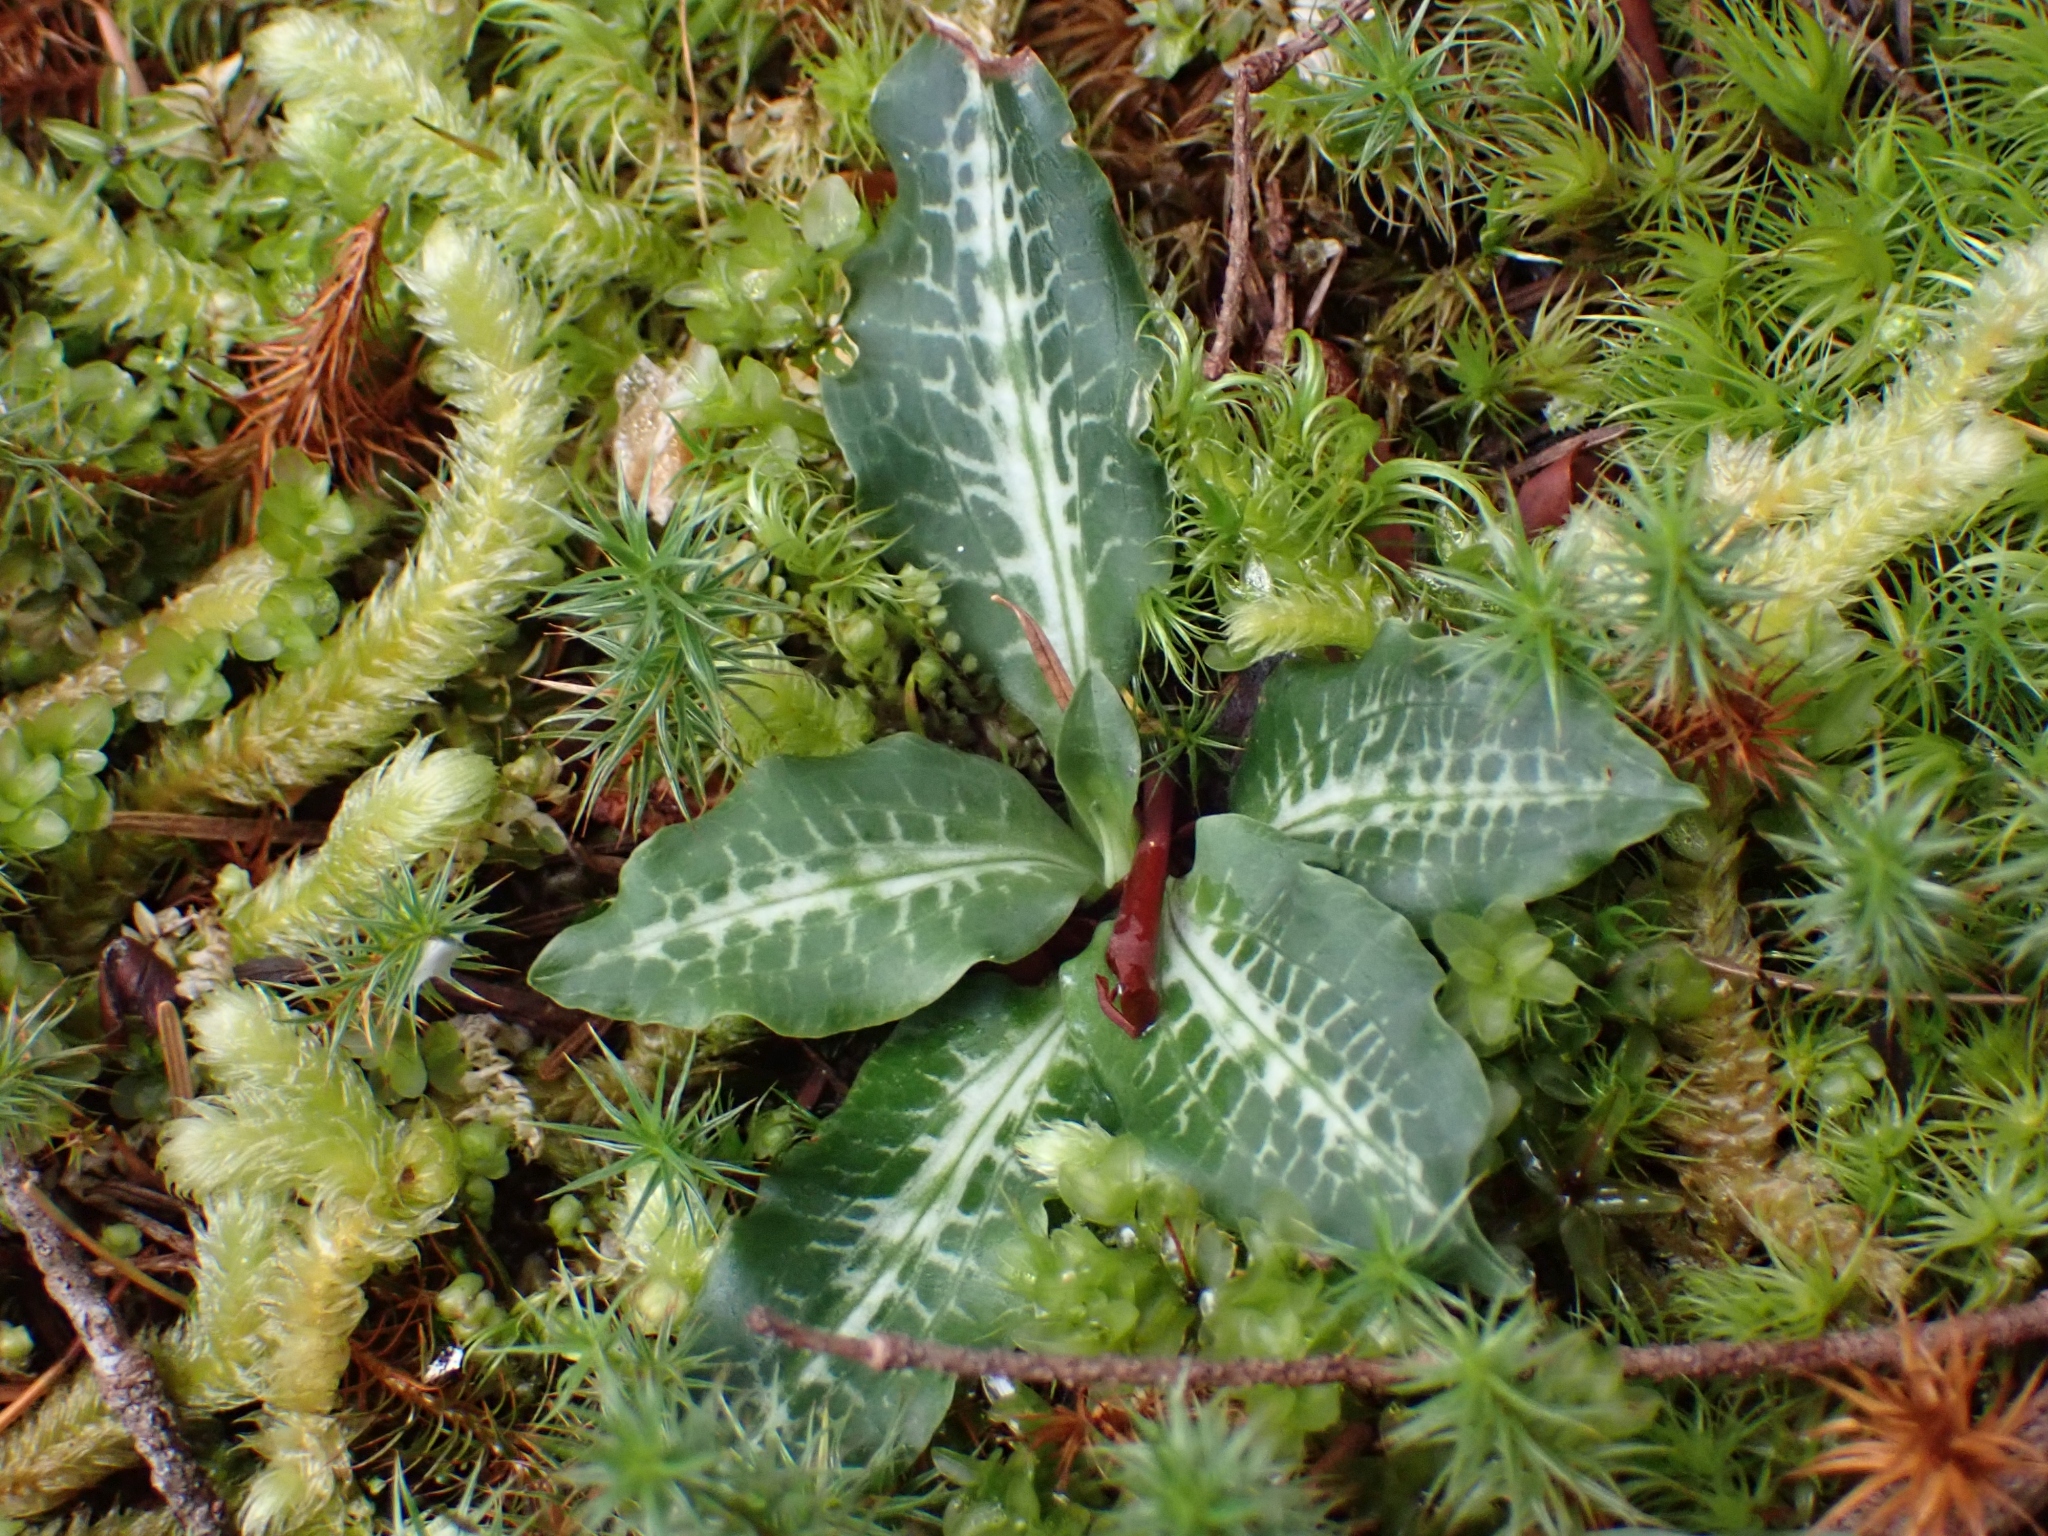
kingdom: Plantae
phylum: Tracheophyta
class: Liliopsida
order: Asparagales
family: Orchidaceae
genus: Goodyera
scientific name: Goodyera oblongifolia
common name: Giant rattlesnake-plantain
